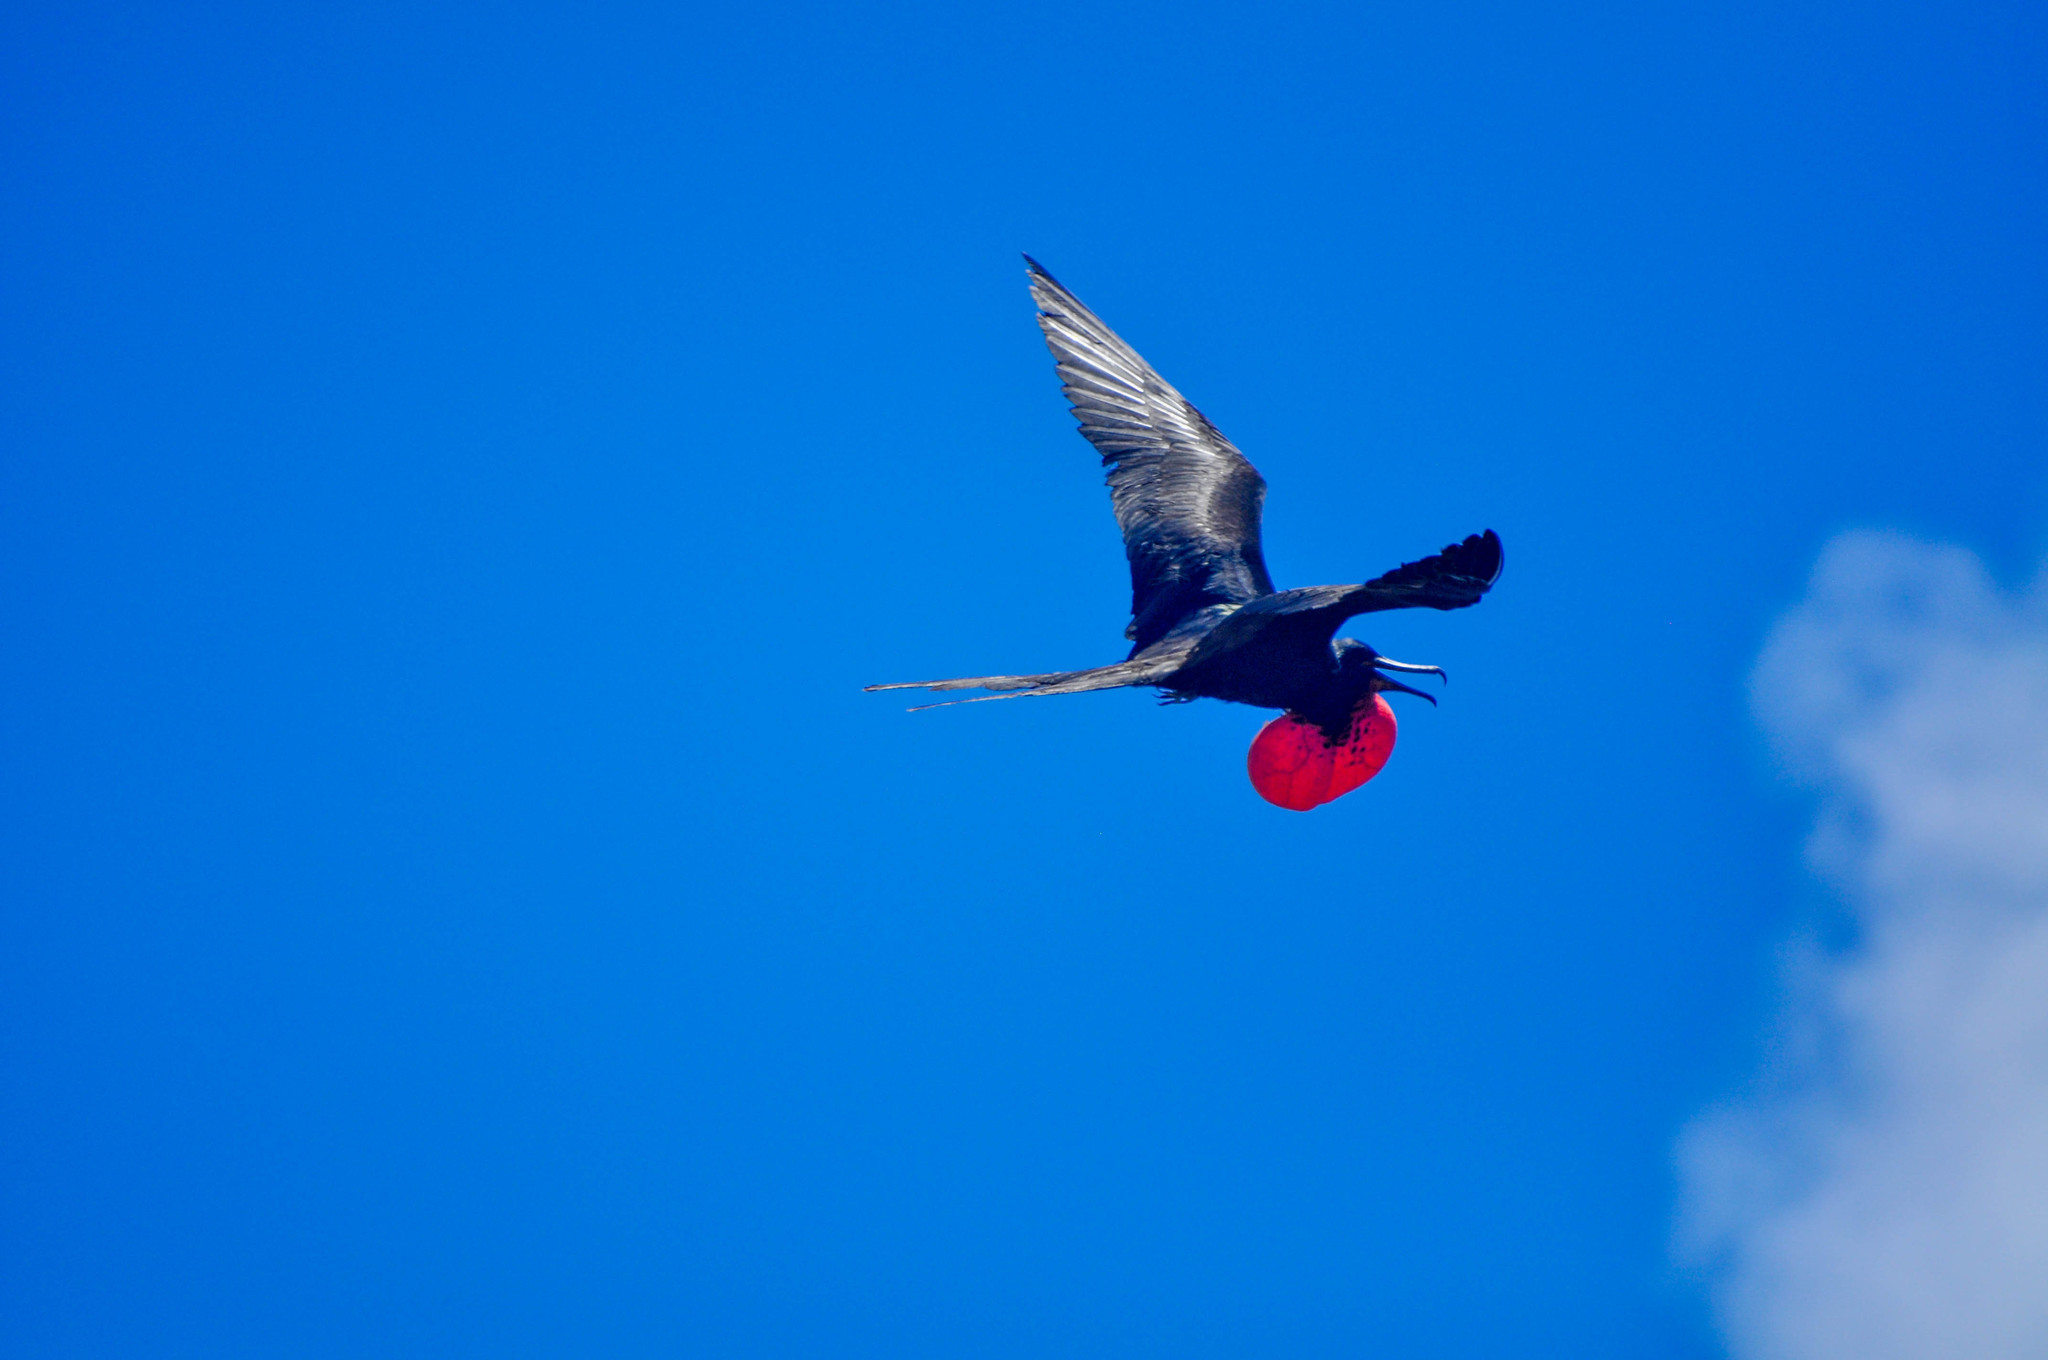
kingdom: Animalia
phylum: Chordata
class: Aves
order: Suliformes
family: Fregatidae
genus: Fregata
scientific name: Fregata
